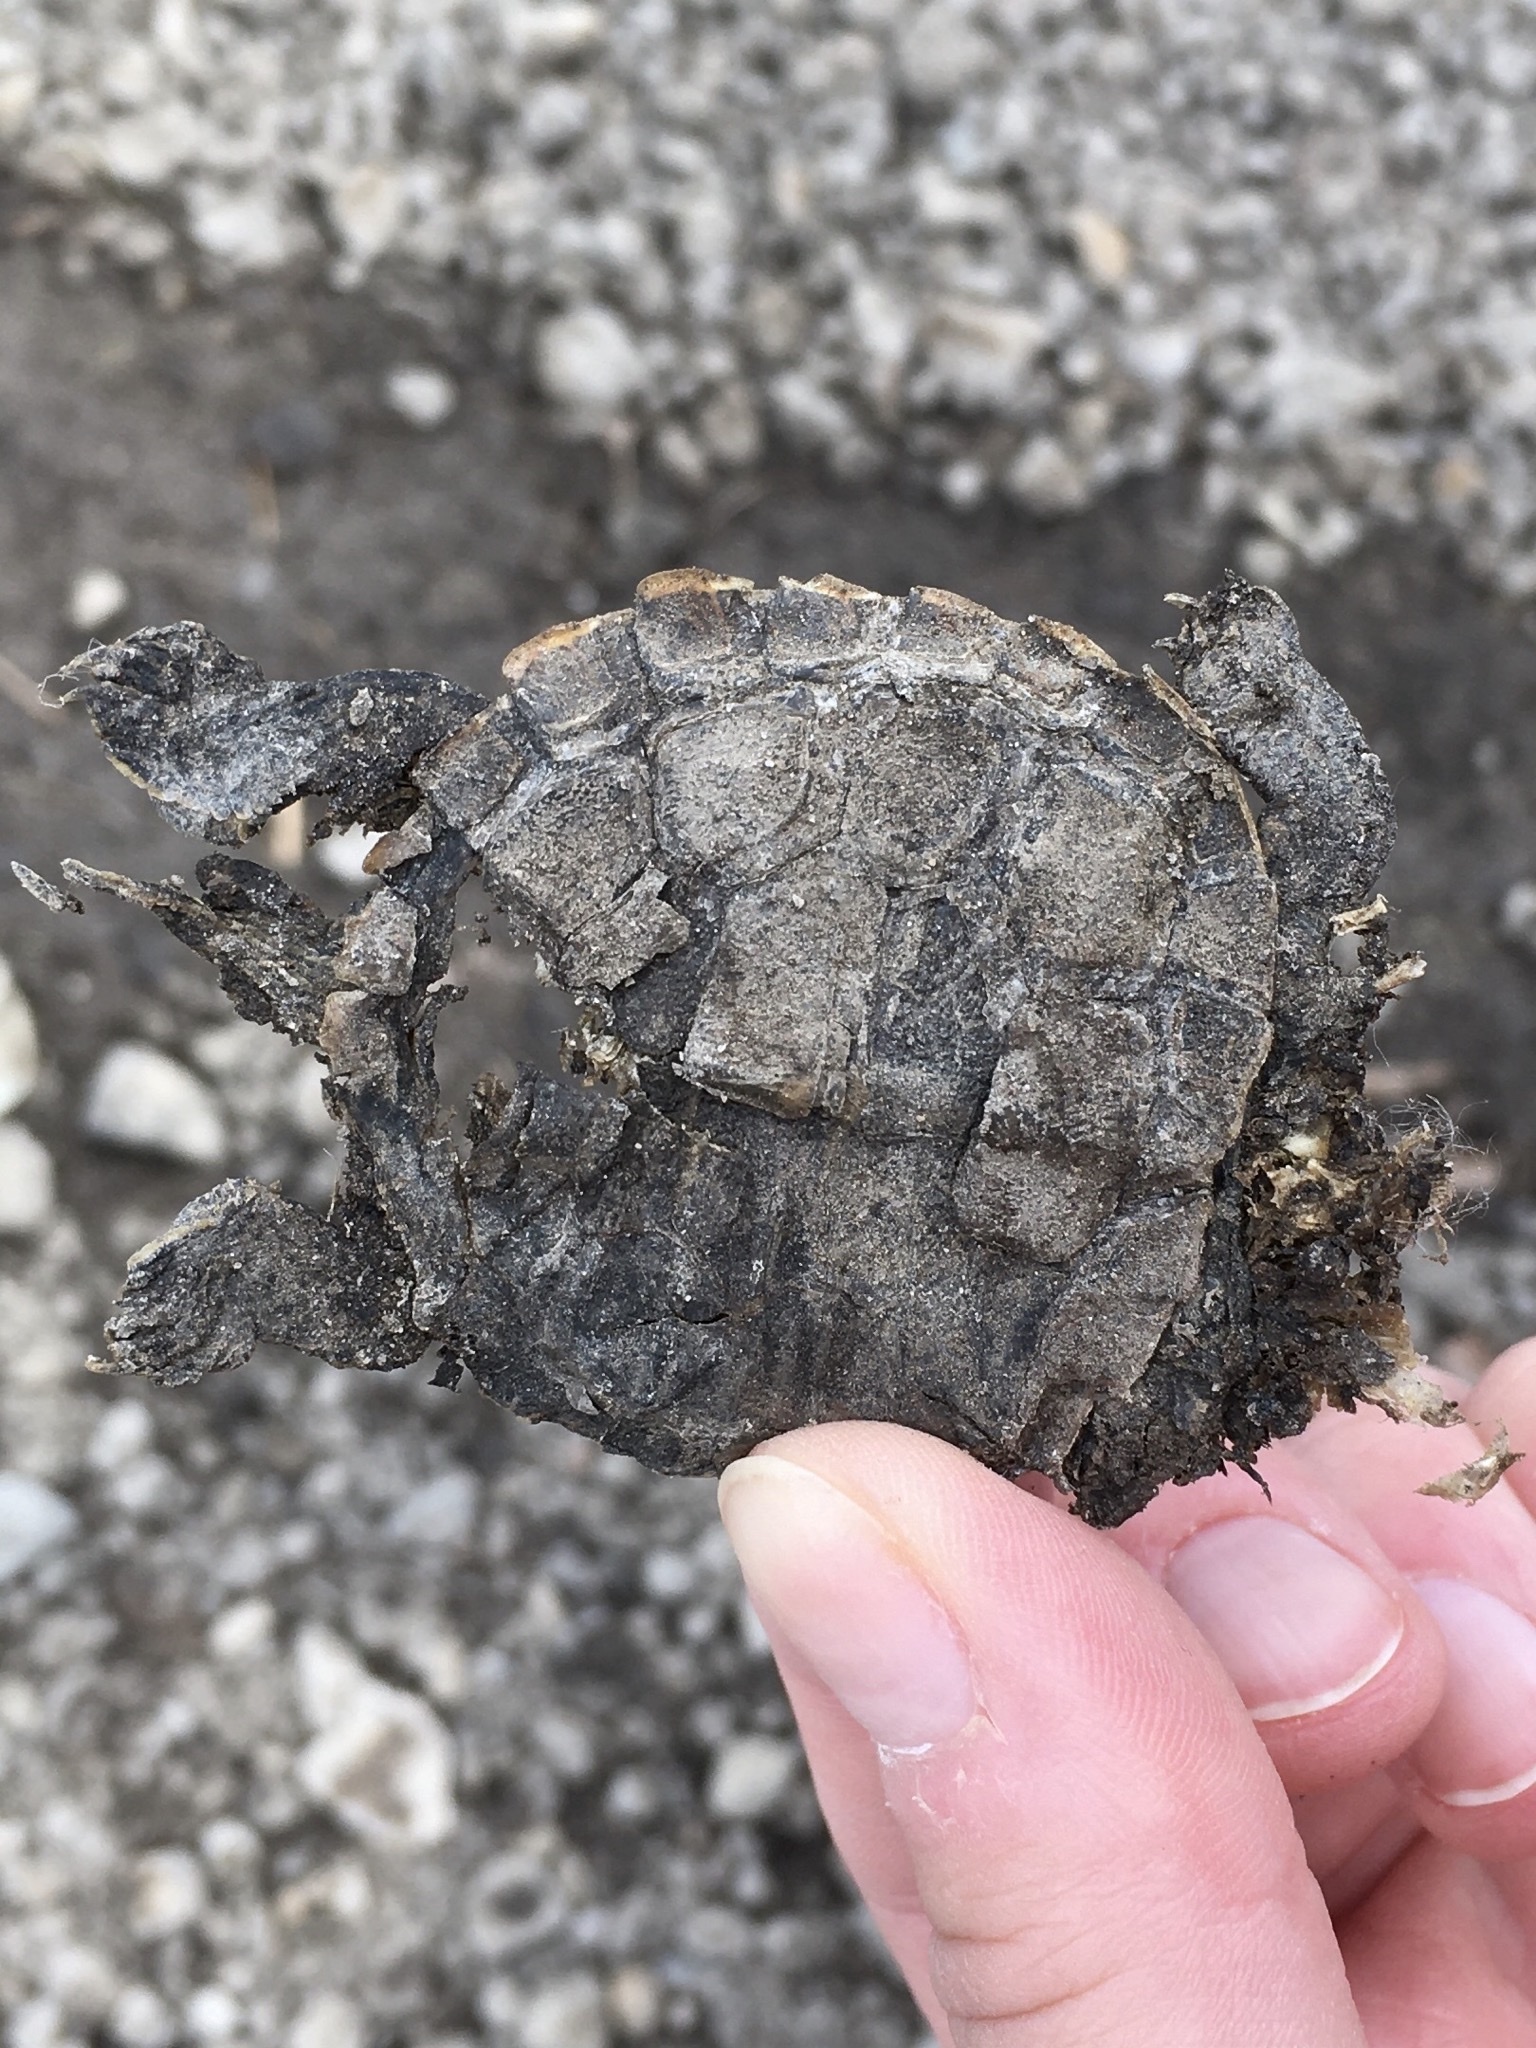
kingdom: Animalia
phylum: Chordata
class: Testudines
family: Emydidae
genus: Graptemys
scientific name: Graptemys geographica
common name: Common map turtle
